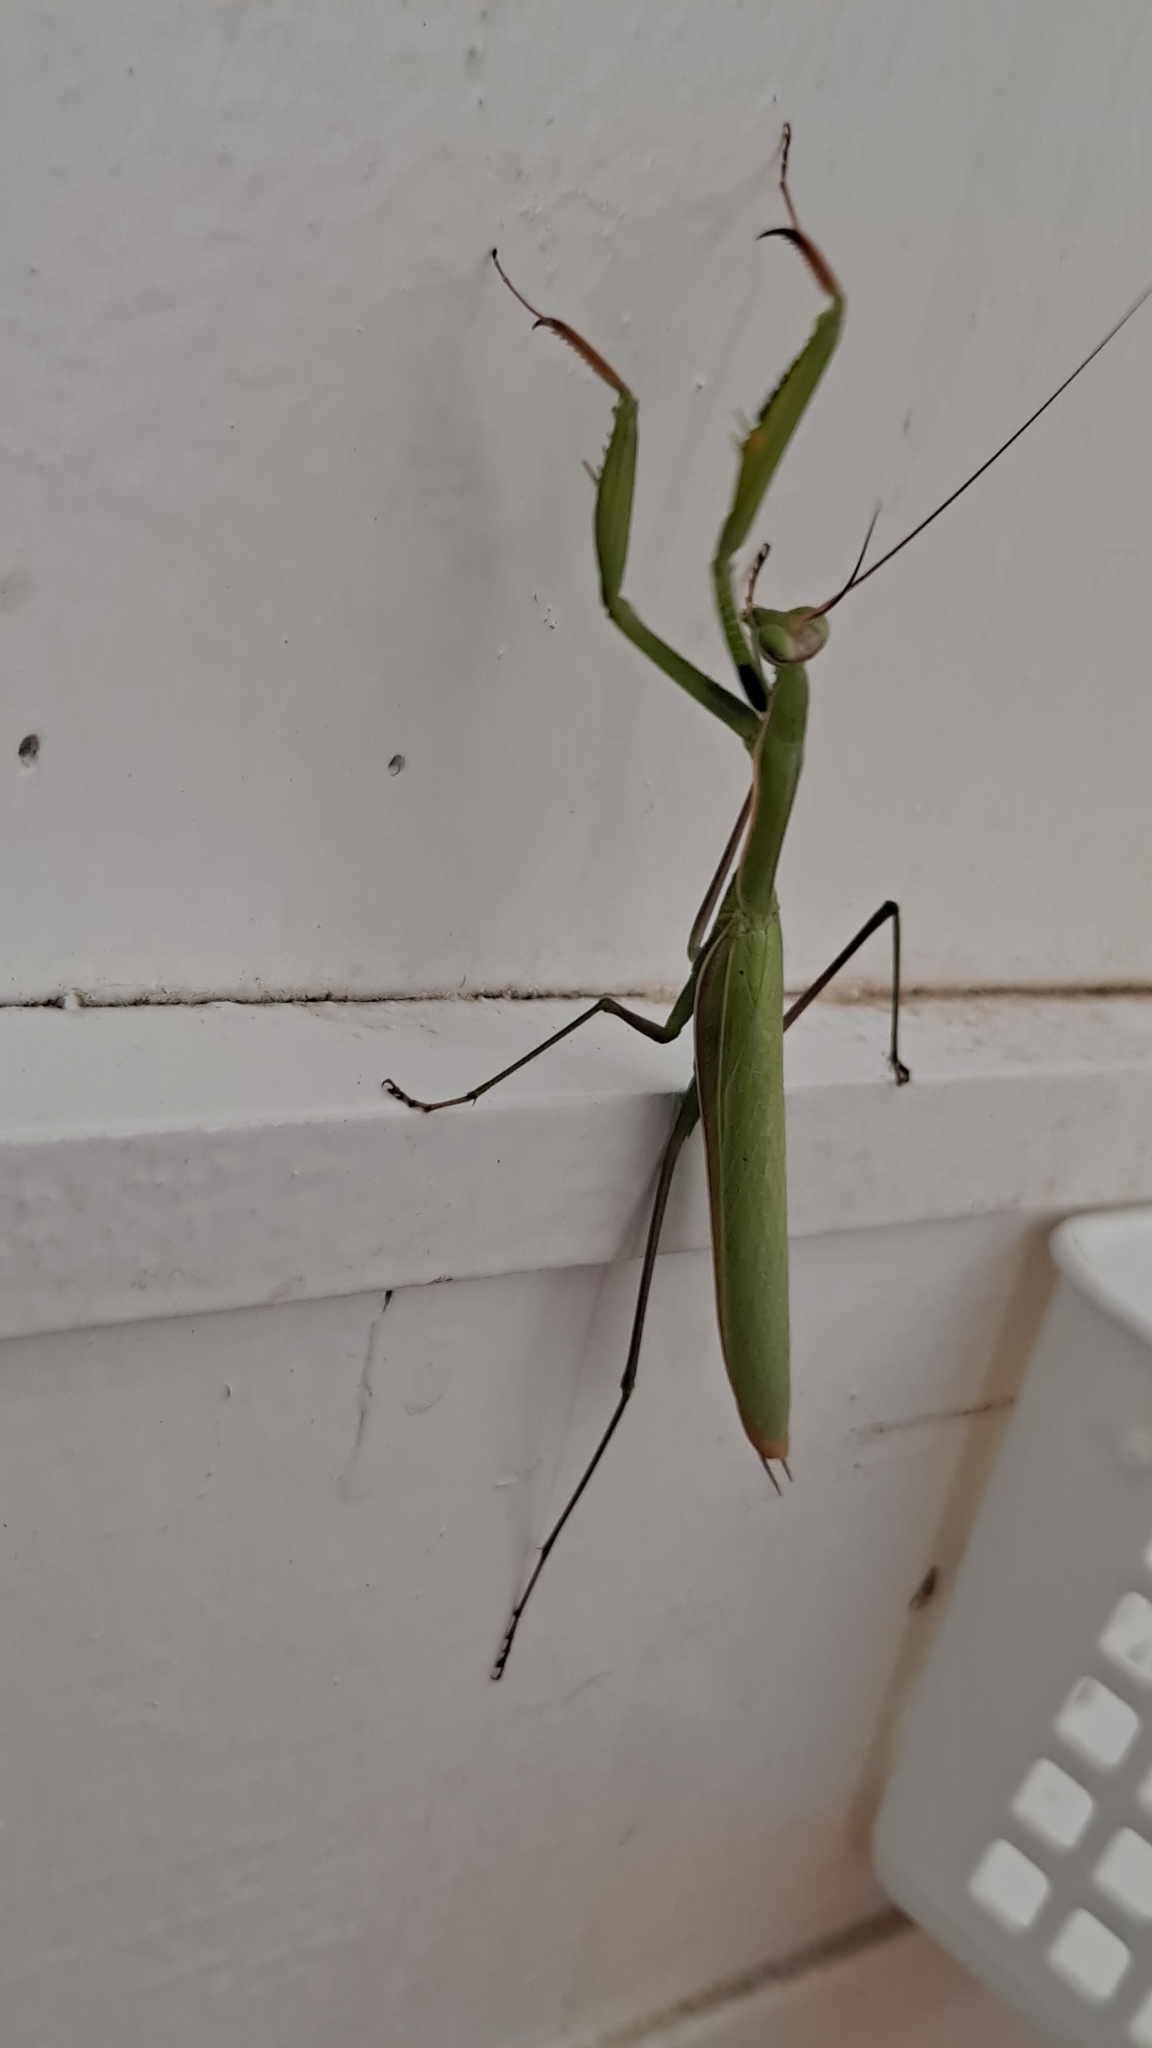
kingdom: Animalia
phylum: Arthropoda
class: Insecta
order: Mantodea
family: Mantidae
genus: Mantis
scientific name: Mantis religiosa
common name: Praying mantis
